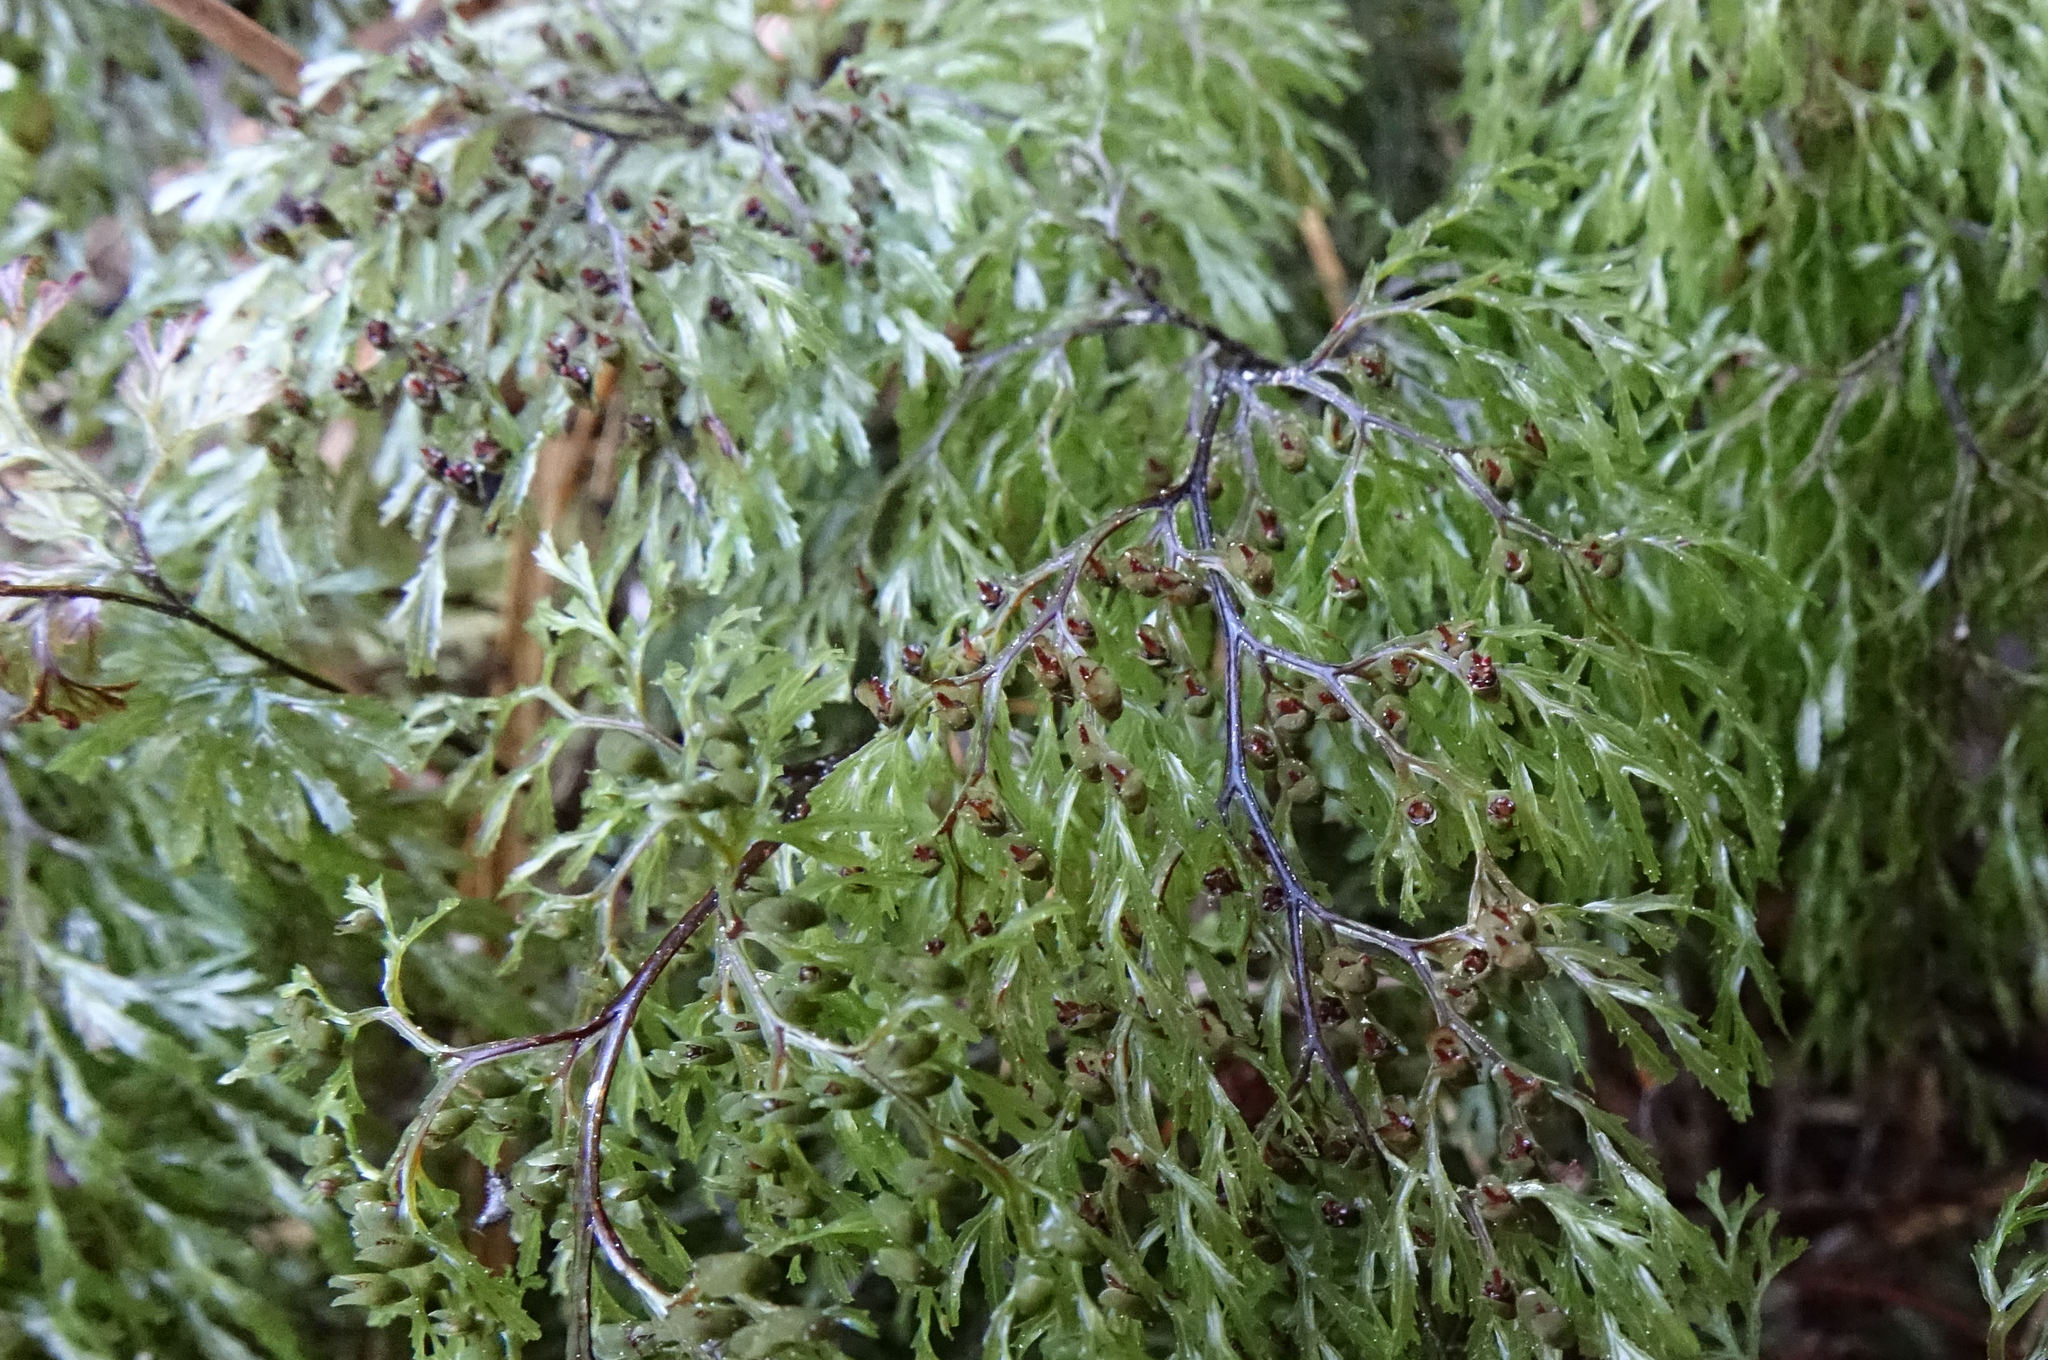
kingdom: Plantae
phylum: Tracheophyta
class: Polypodiopsida
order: Hymenophyllales
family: Hymenophyllaceae
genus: Hymenophyllum
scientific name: Hymenophyllum multifidum
